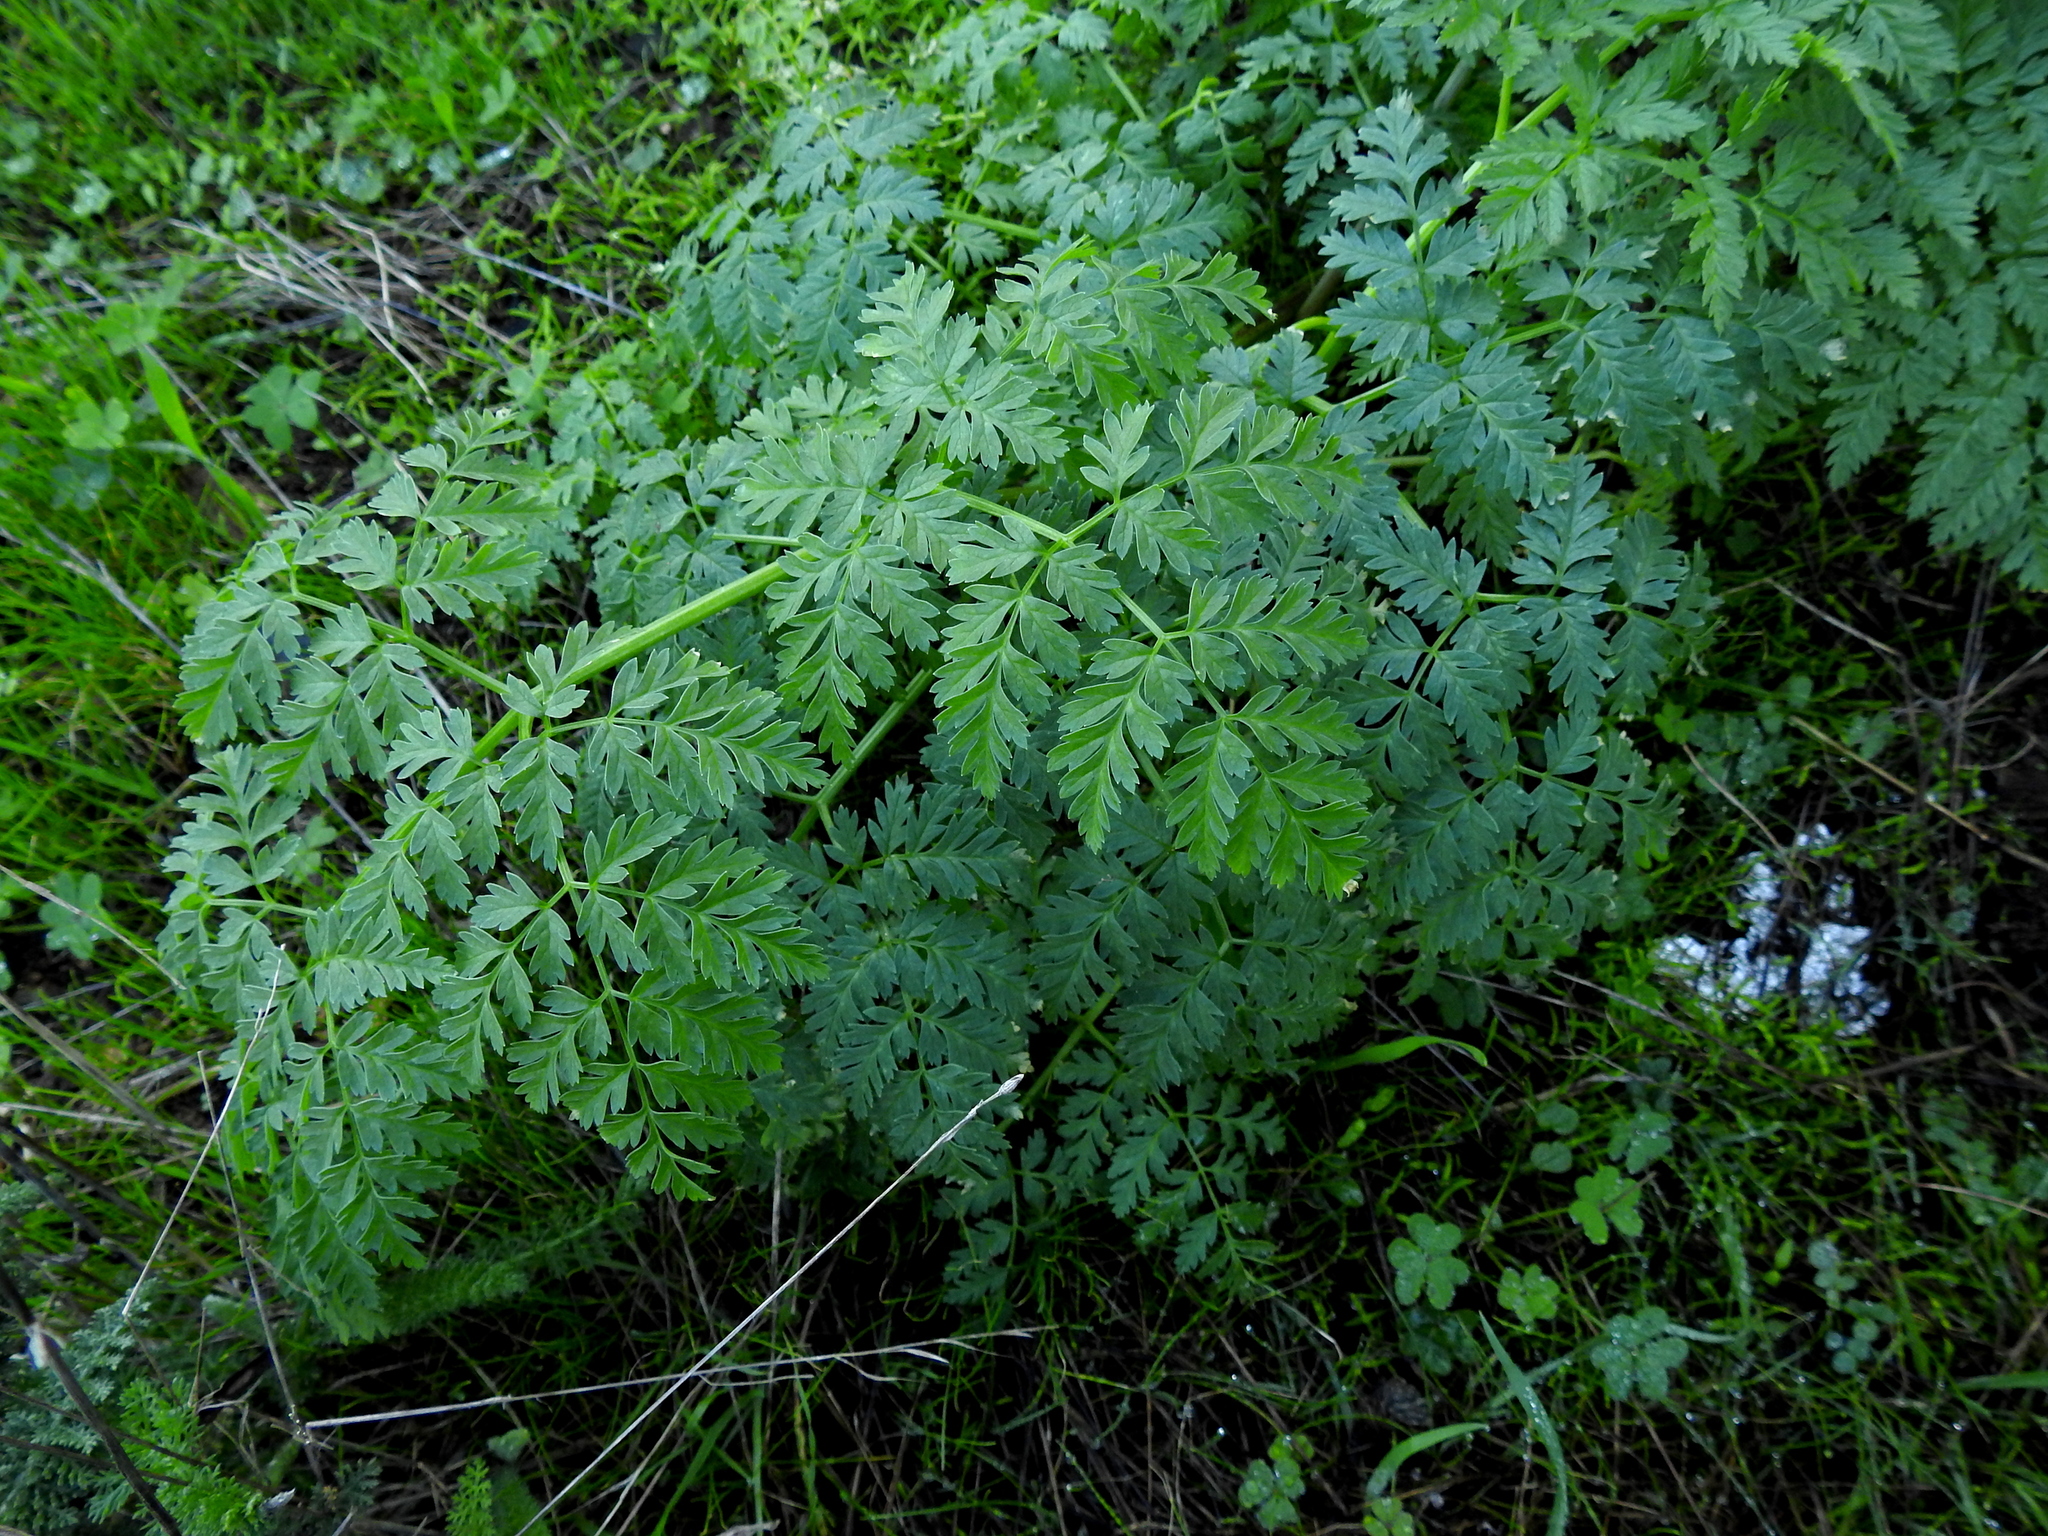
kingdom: Plantae
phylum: Tracheophyta
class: Magnoliopsida
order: Apiales
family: Apiaceae
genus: Conium
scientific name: Conium maculatum
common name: Hemlock
